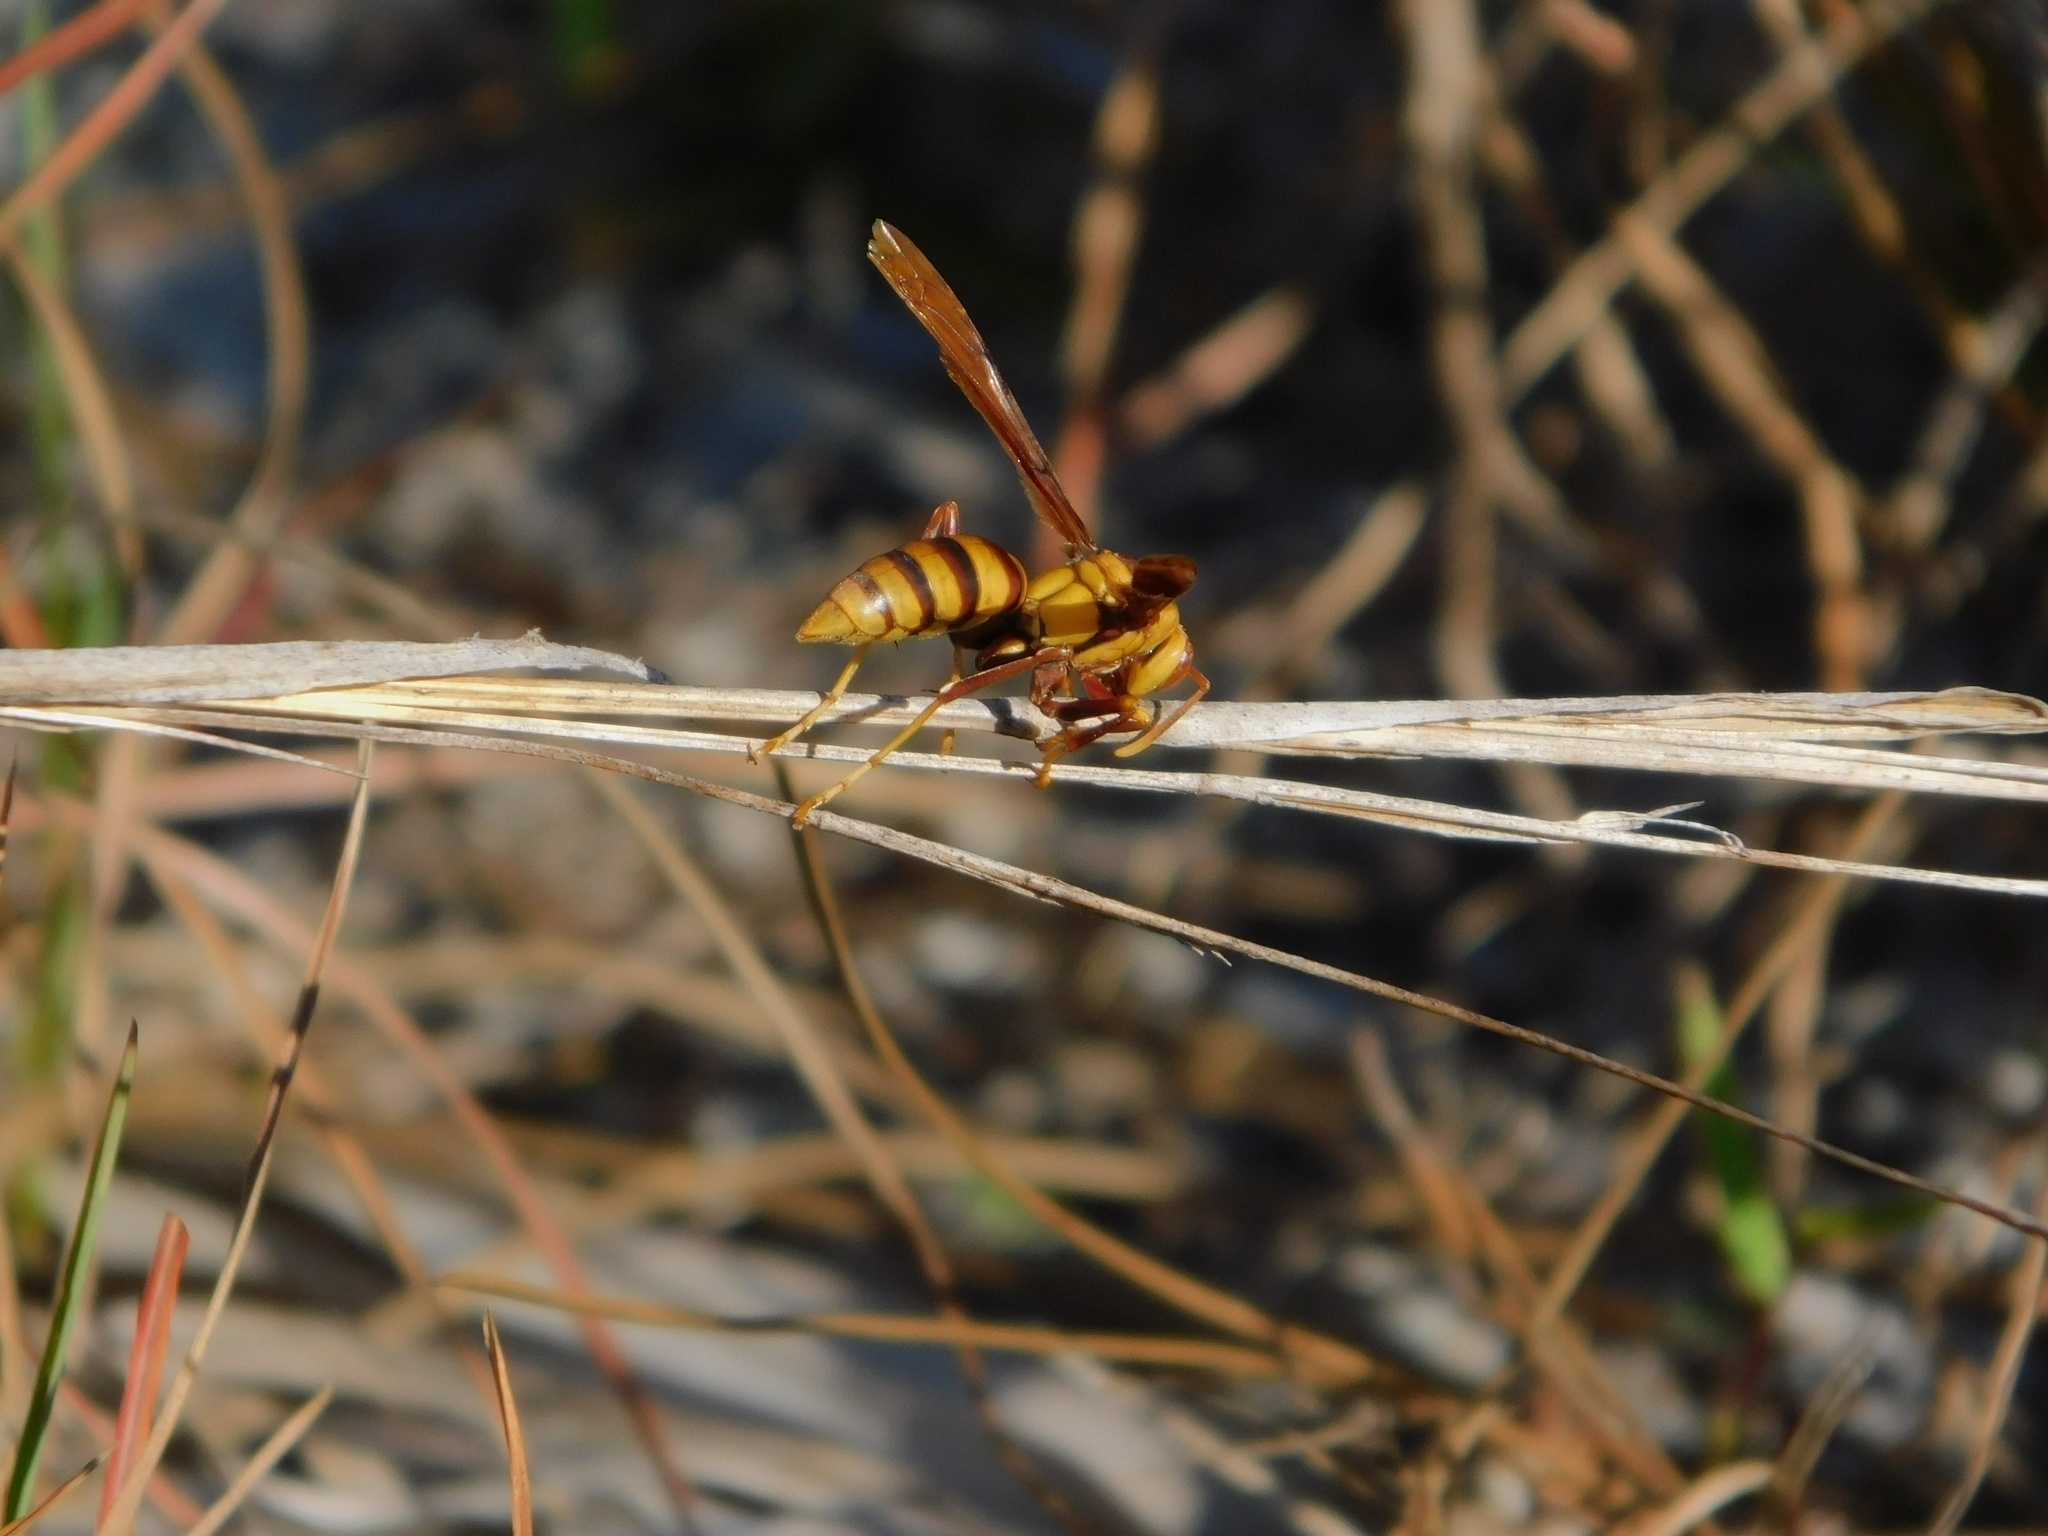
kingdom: Animalia
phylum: Arthropoda
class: Insecta
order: Hymenoptera
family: Eumenidae
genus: Polistes
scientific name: Polistes major
